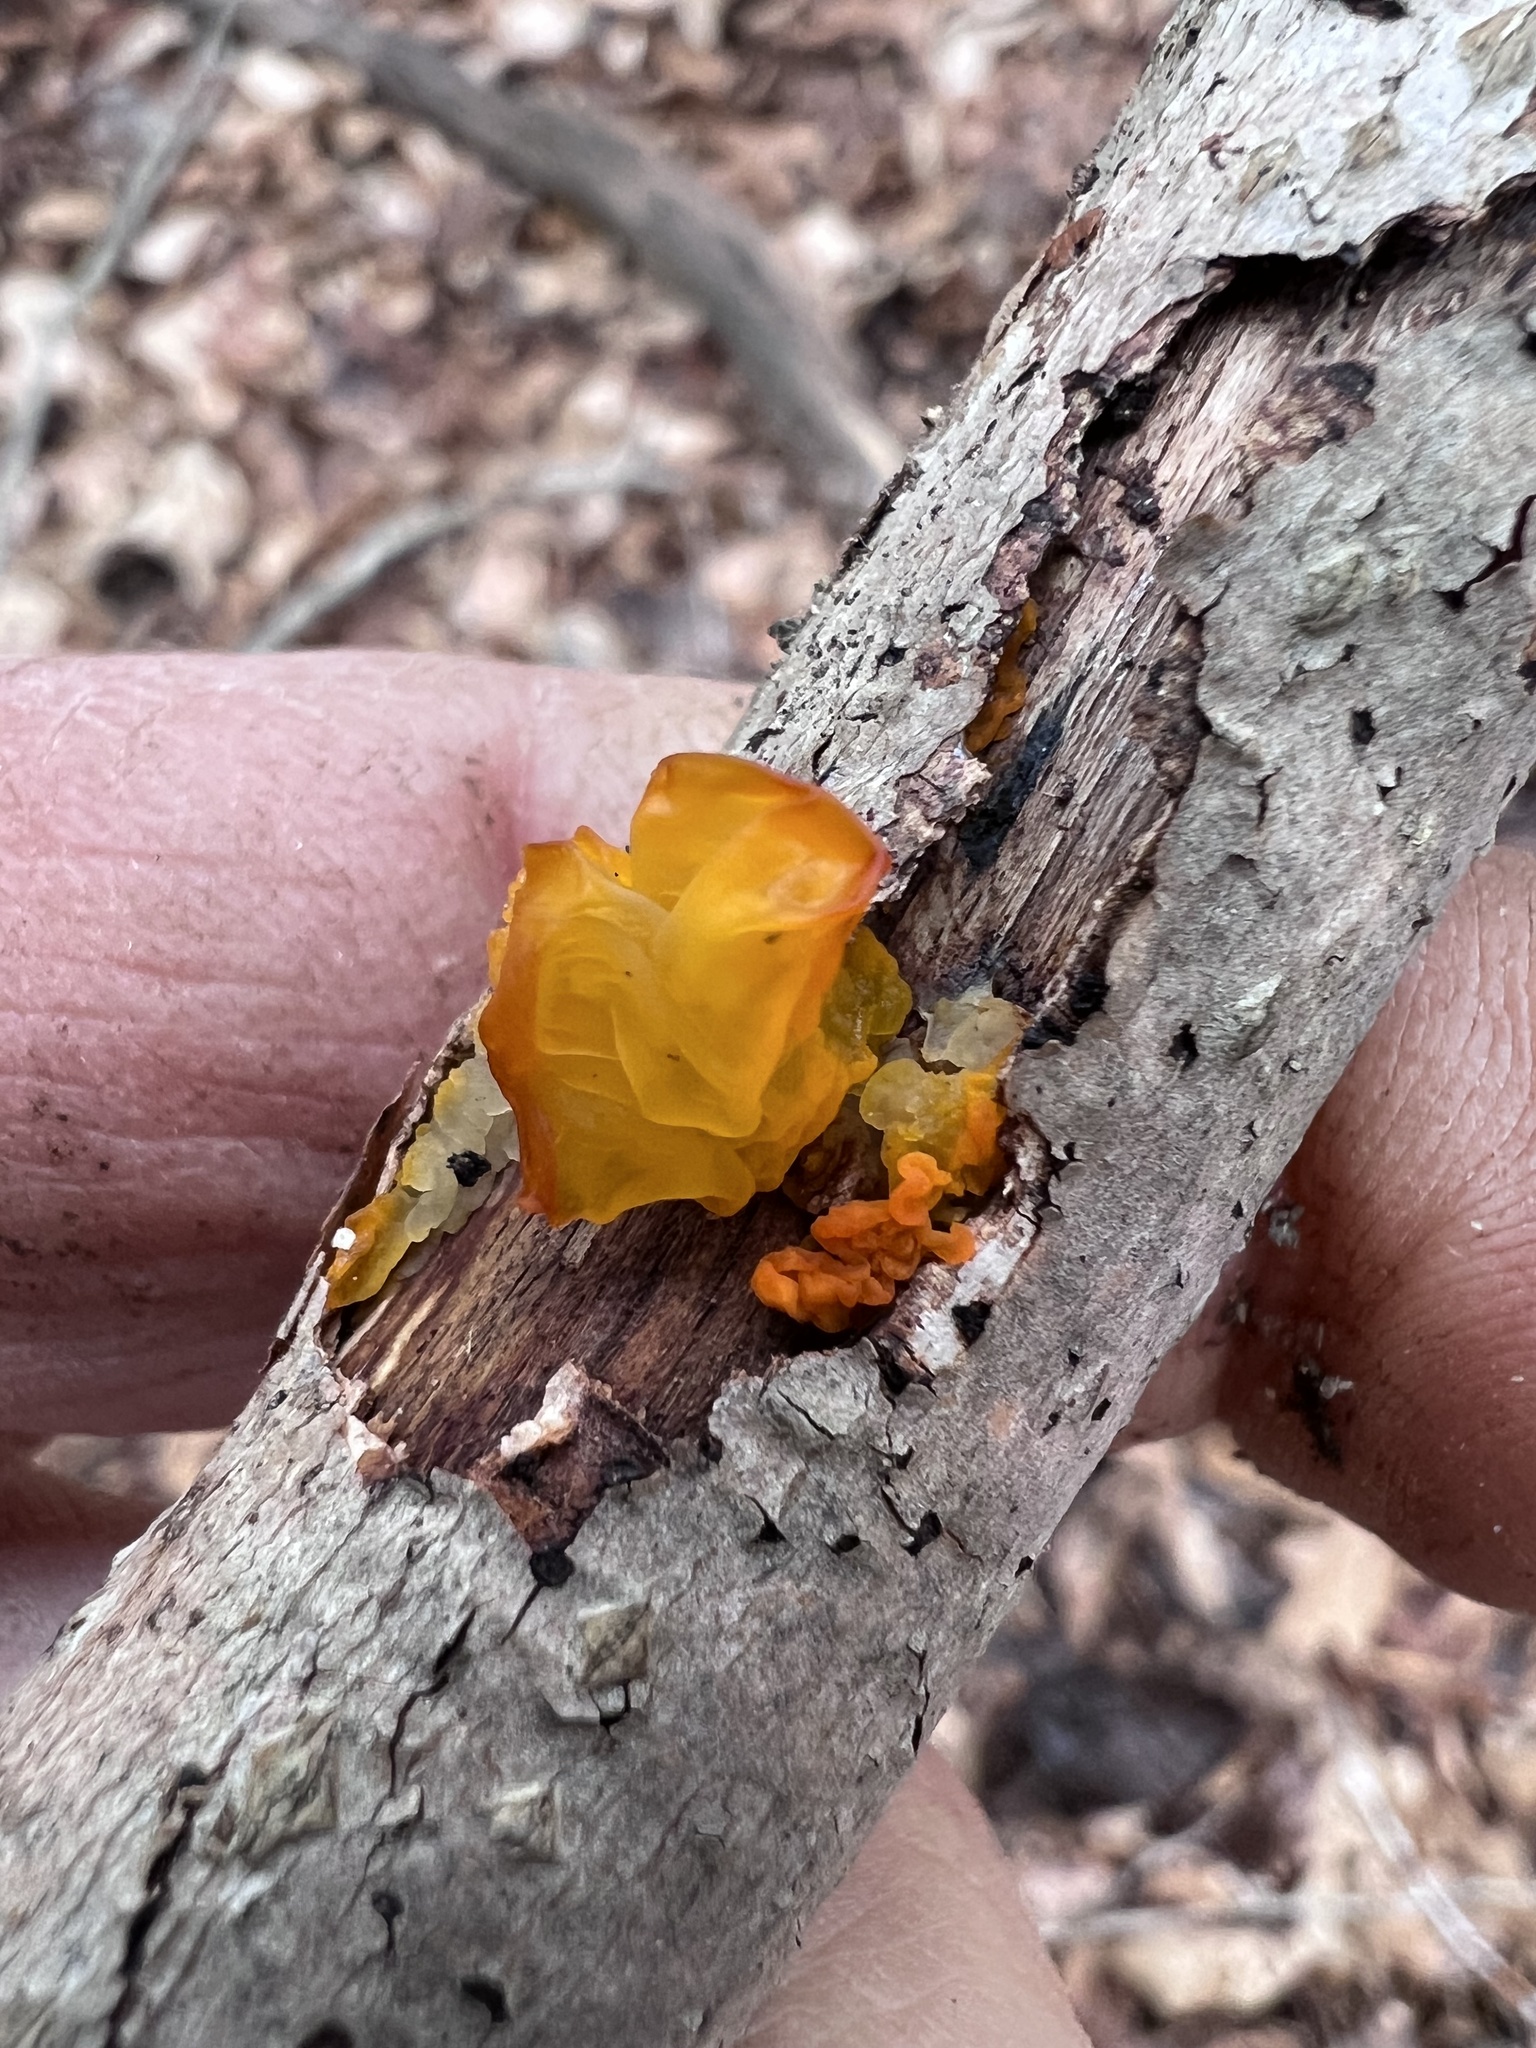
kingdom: Fungi
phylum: Basidiomycota
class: Tremellomycetes
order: Tremellales
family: Tremellaceae
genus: Tremella
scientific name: Tremella mesenterica
